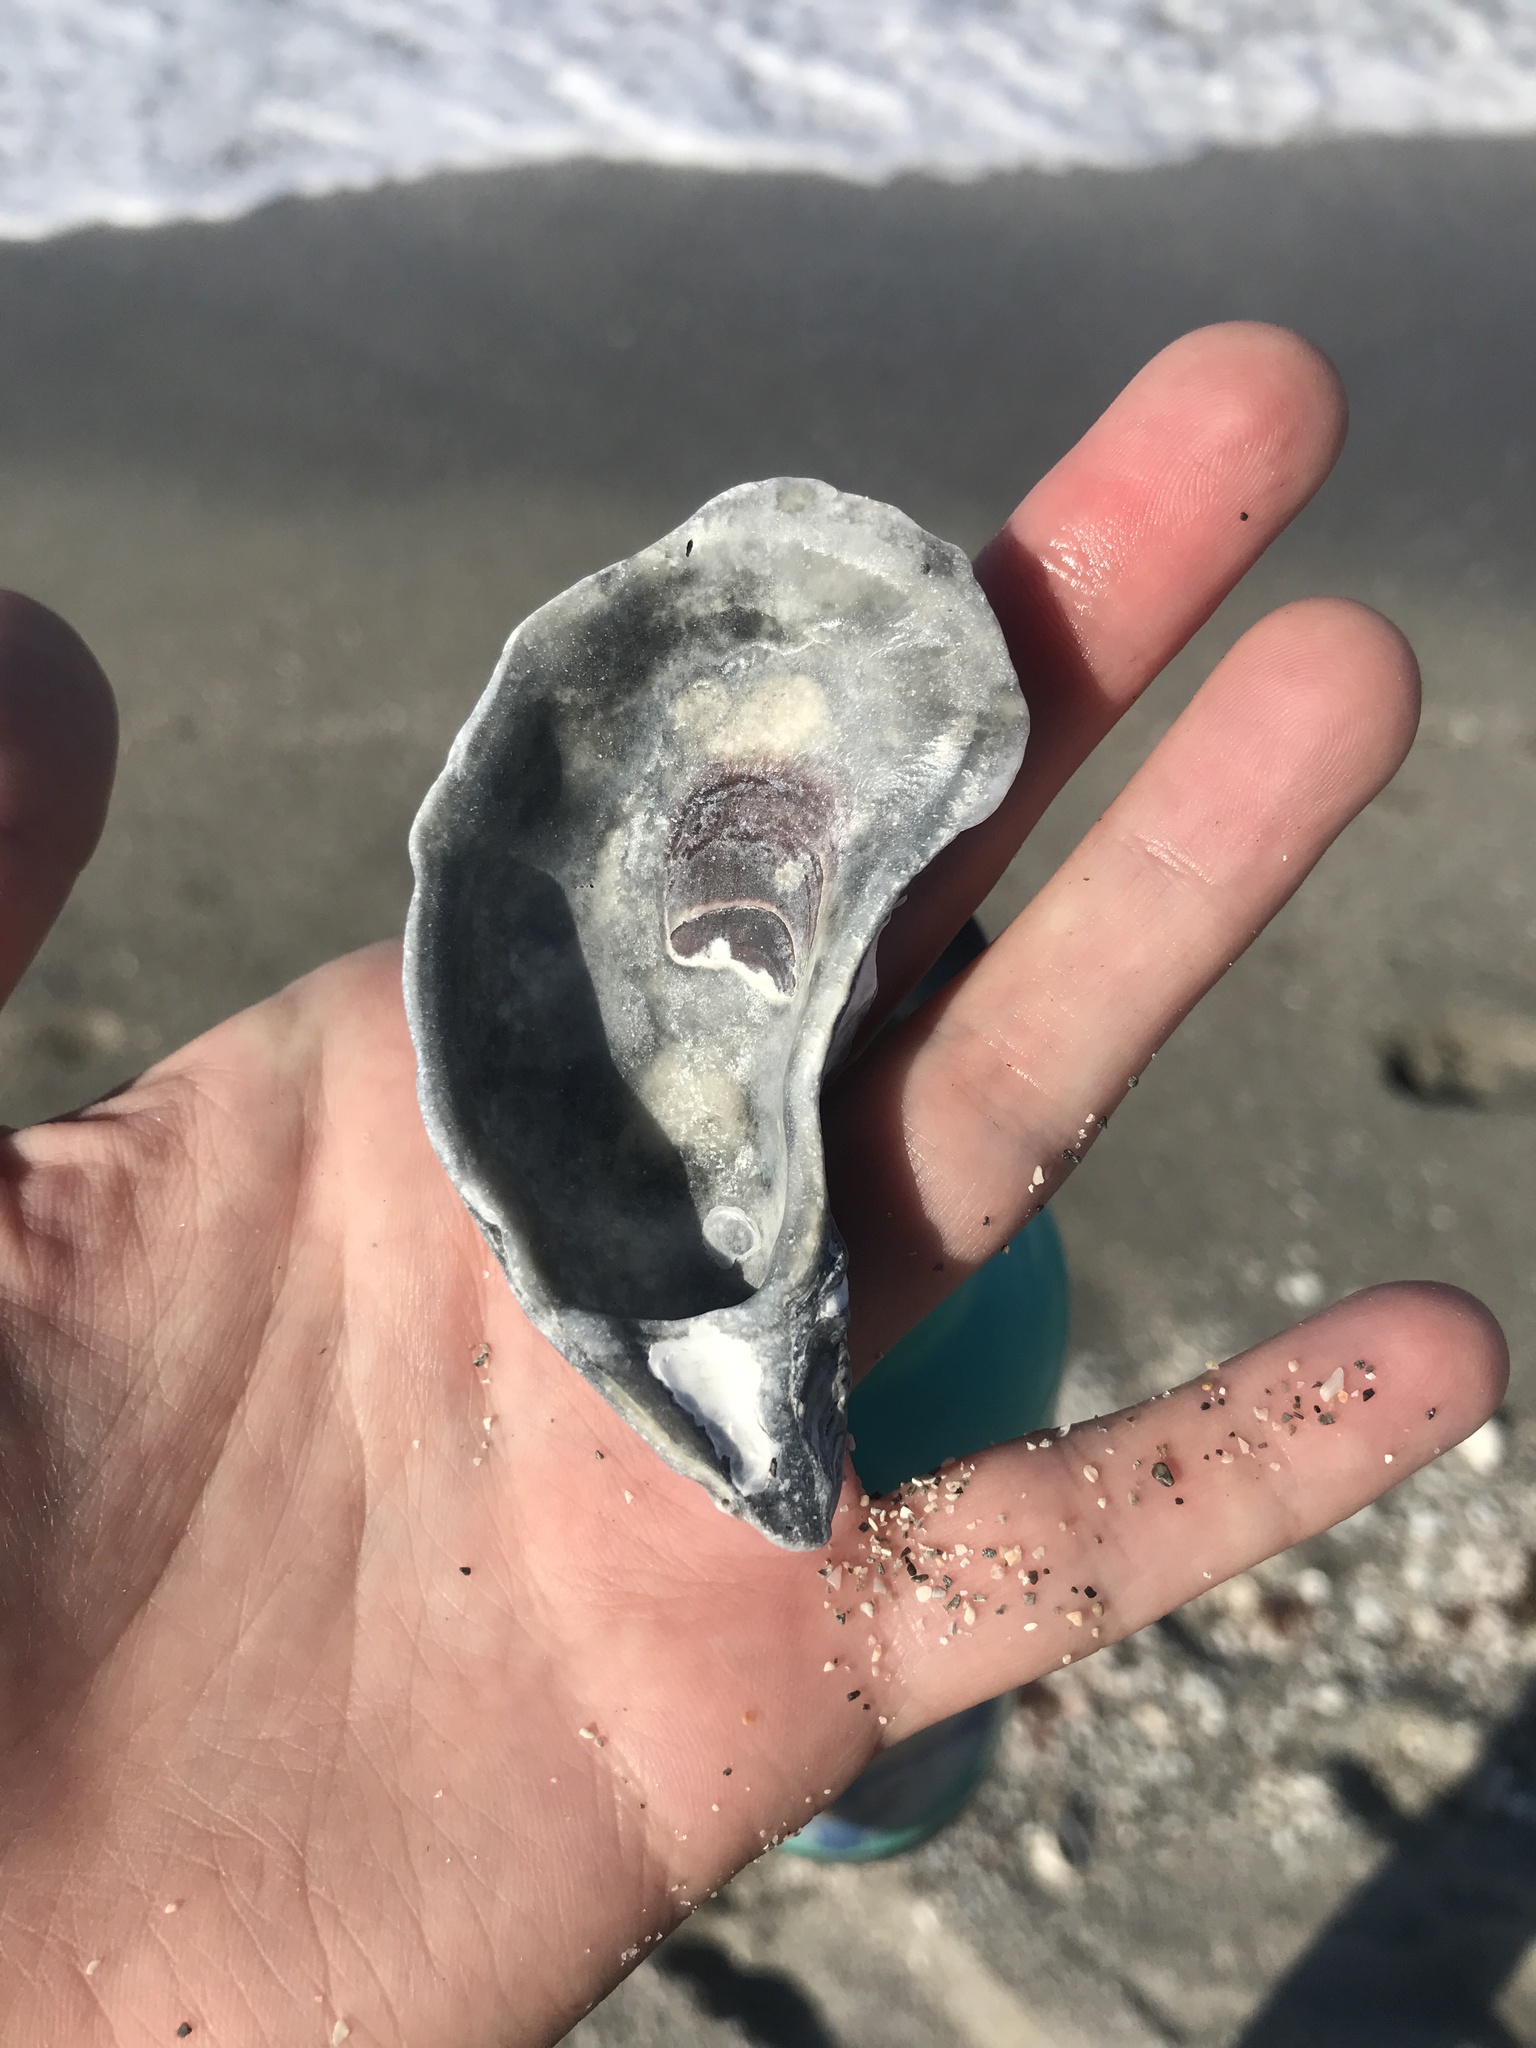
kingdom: Animalia
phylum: Mollusca
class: Bivalvia
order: Ostreida
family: Ostreidae
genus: Crassostrea
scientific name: Crassostrea virginica
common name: American oyster
